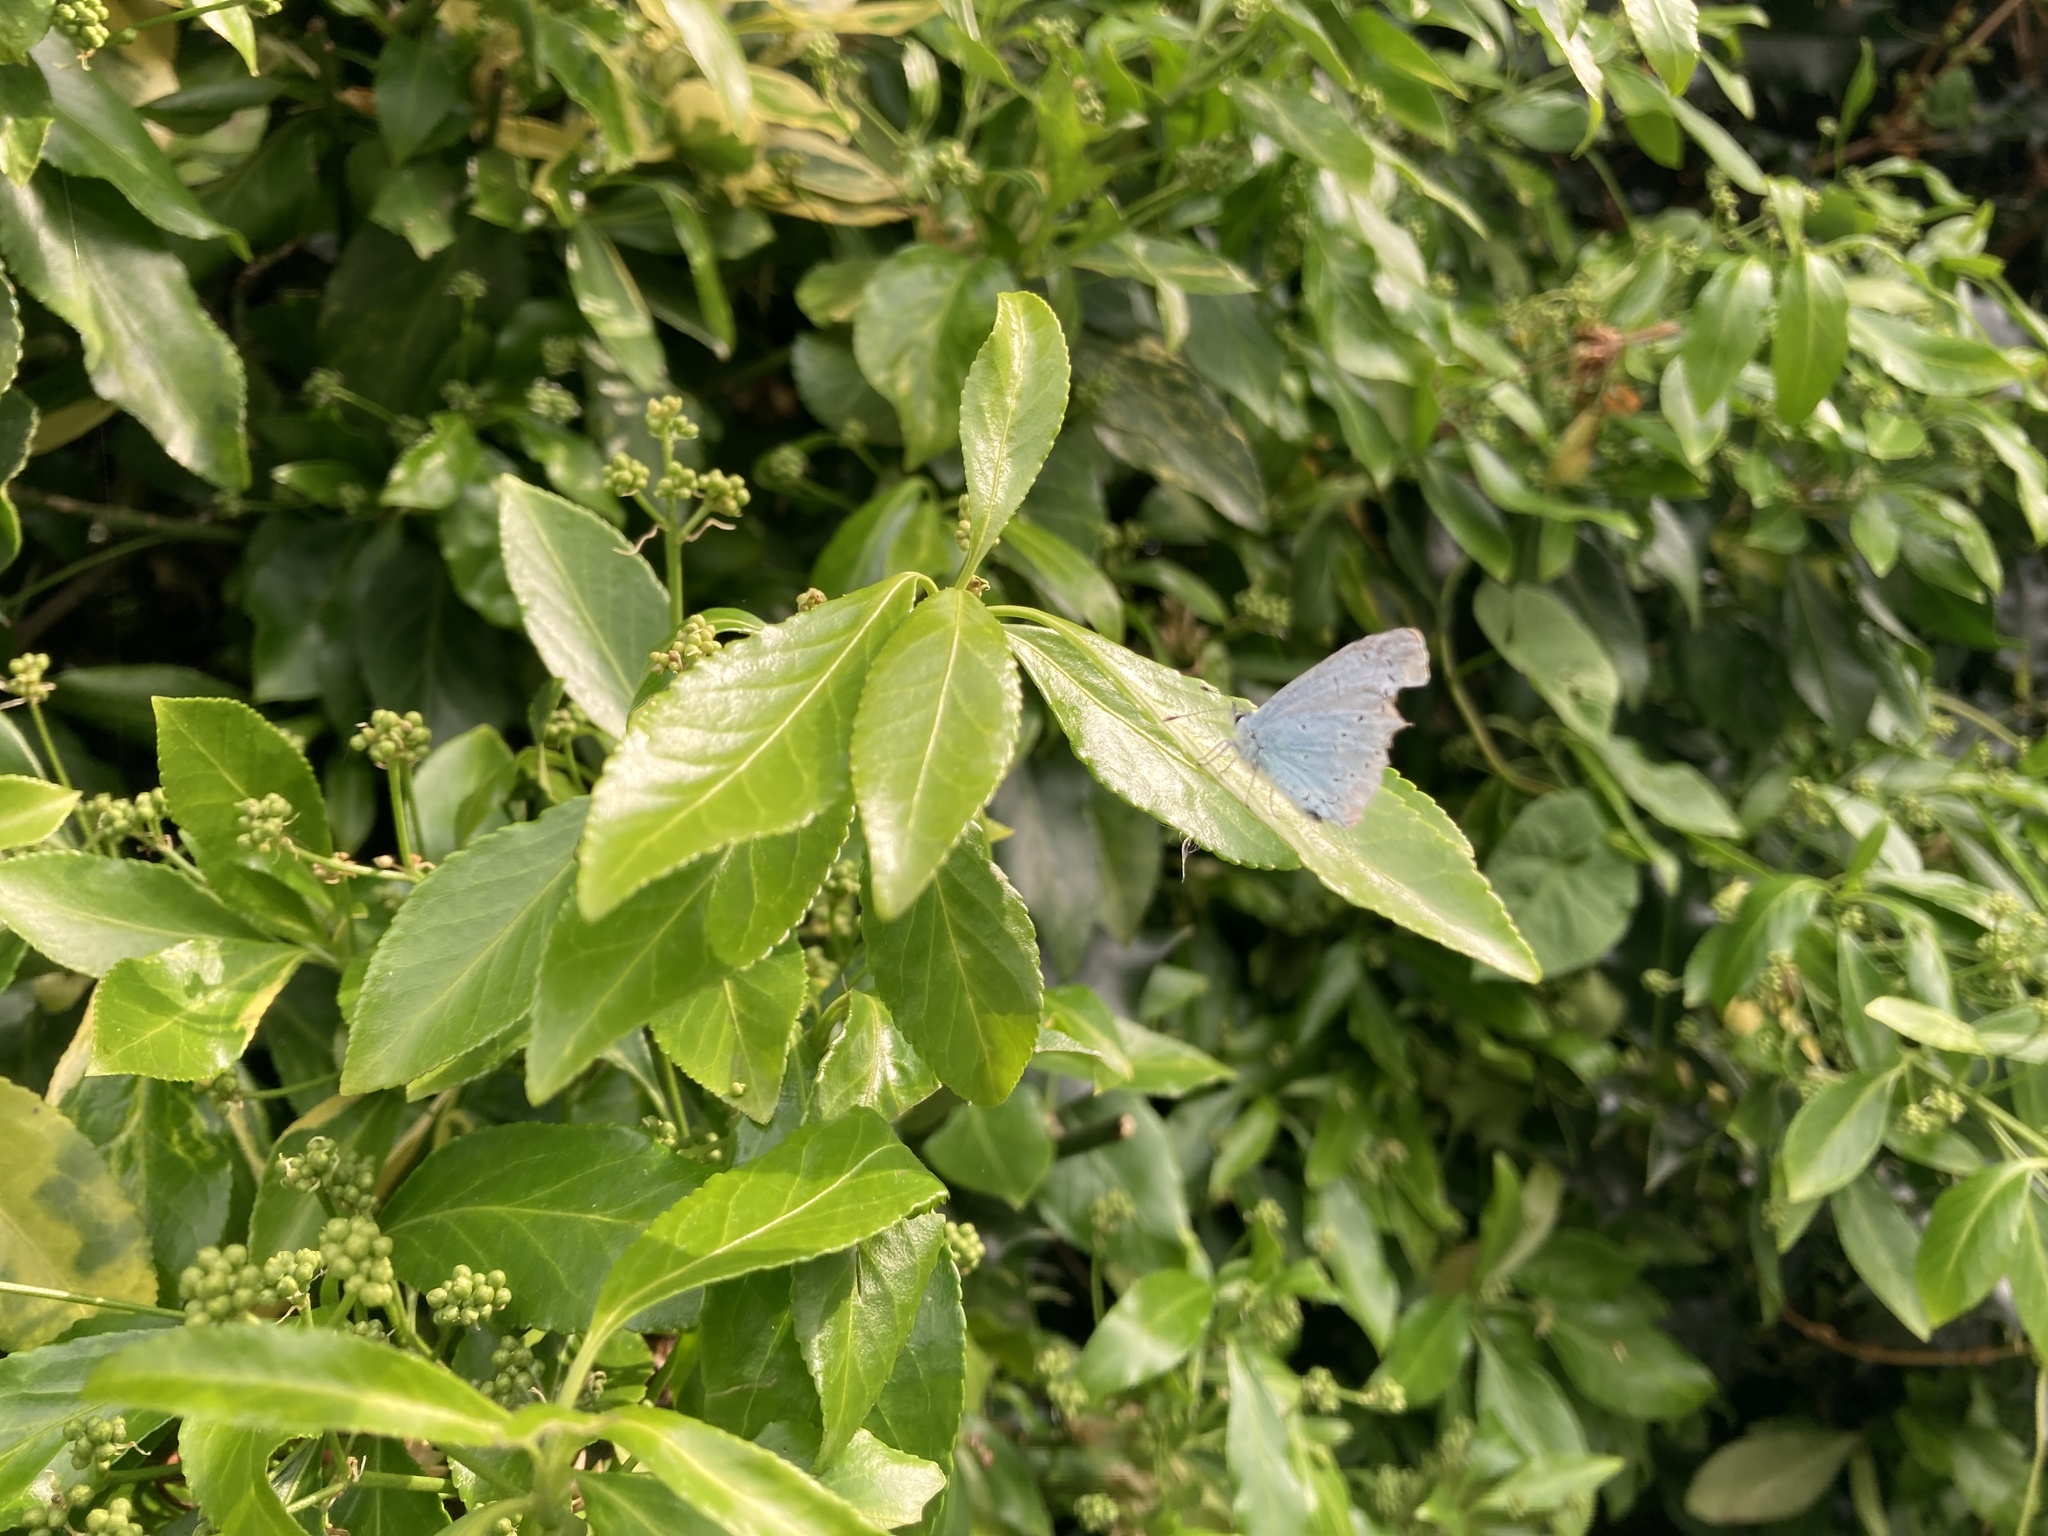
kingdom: Animalia
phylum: Arthropoda
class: Insecta
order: Lepidoptera
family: Lycaenidae
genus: Celastrina
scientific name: Celastrina argiolus
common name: Holly blue
